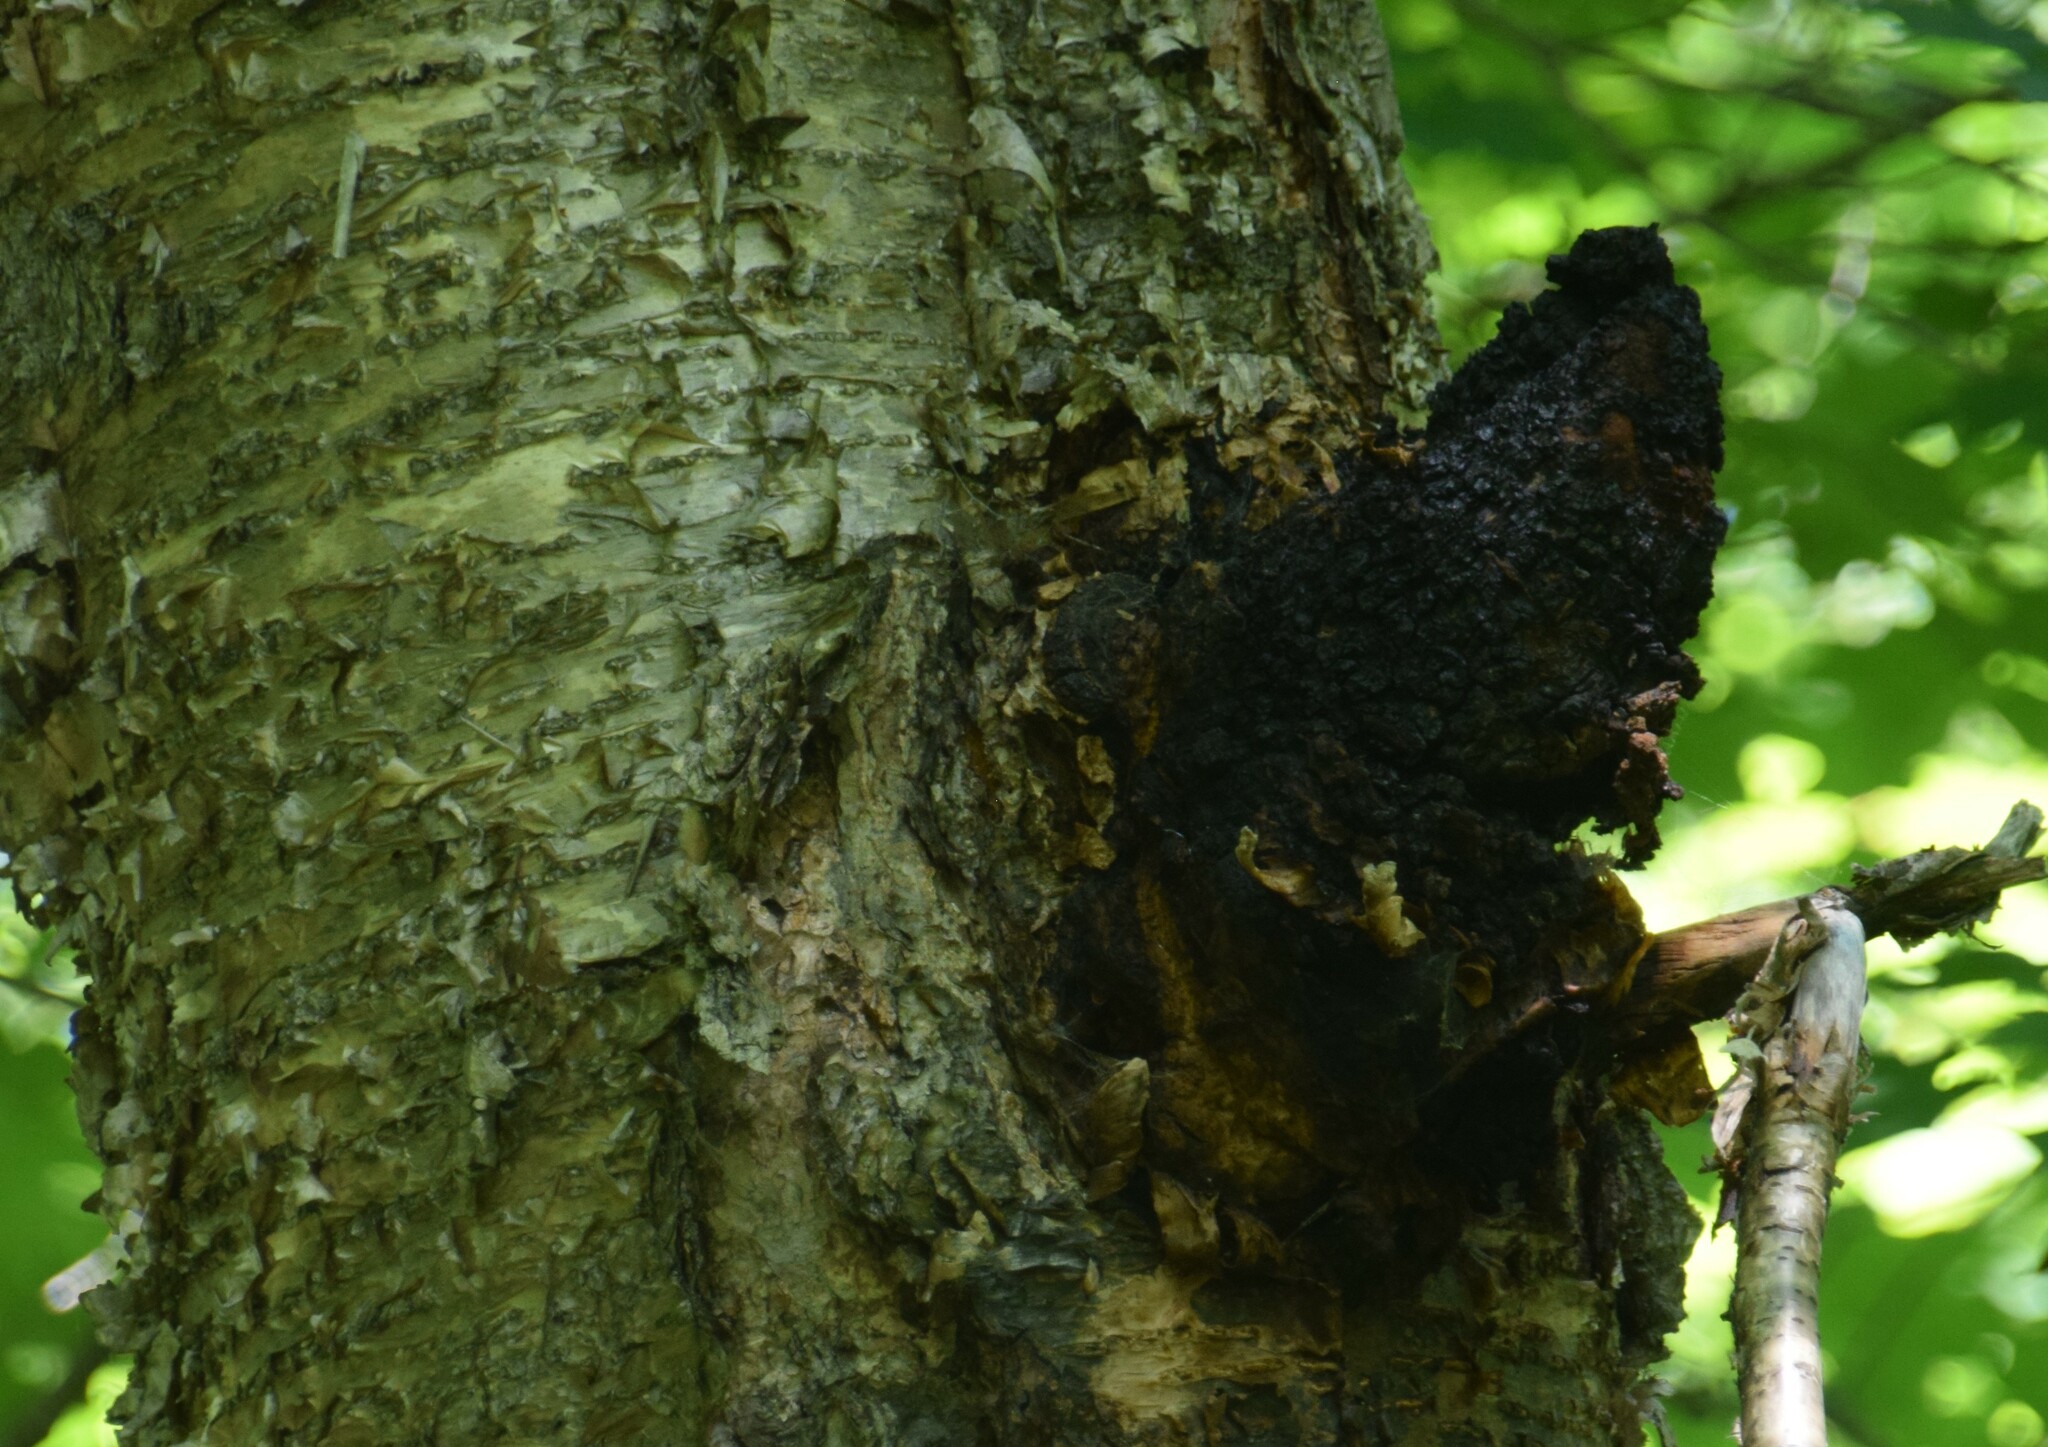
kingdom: Fungi
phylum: Basidiomycota
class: Agaricomycetes
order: Hymenochaetales
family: Hymenochaetaceae
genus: Inonotus
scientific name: Inonotus obliquus
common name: Chaga
